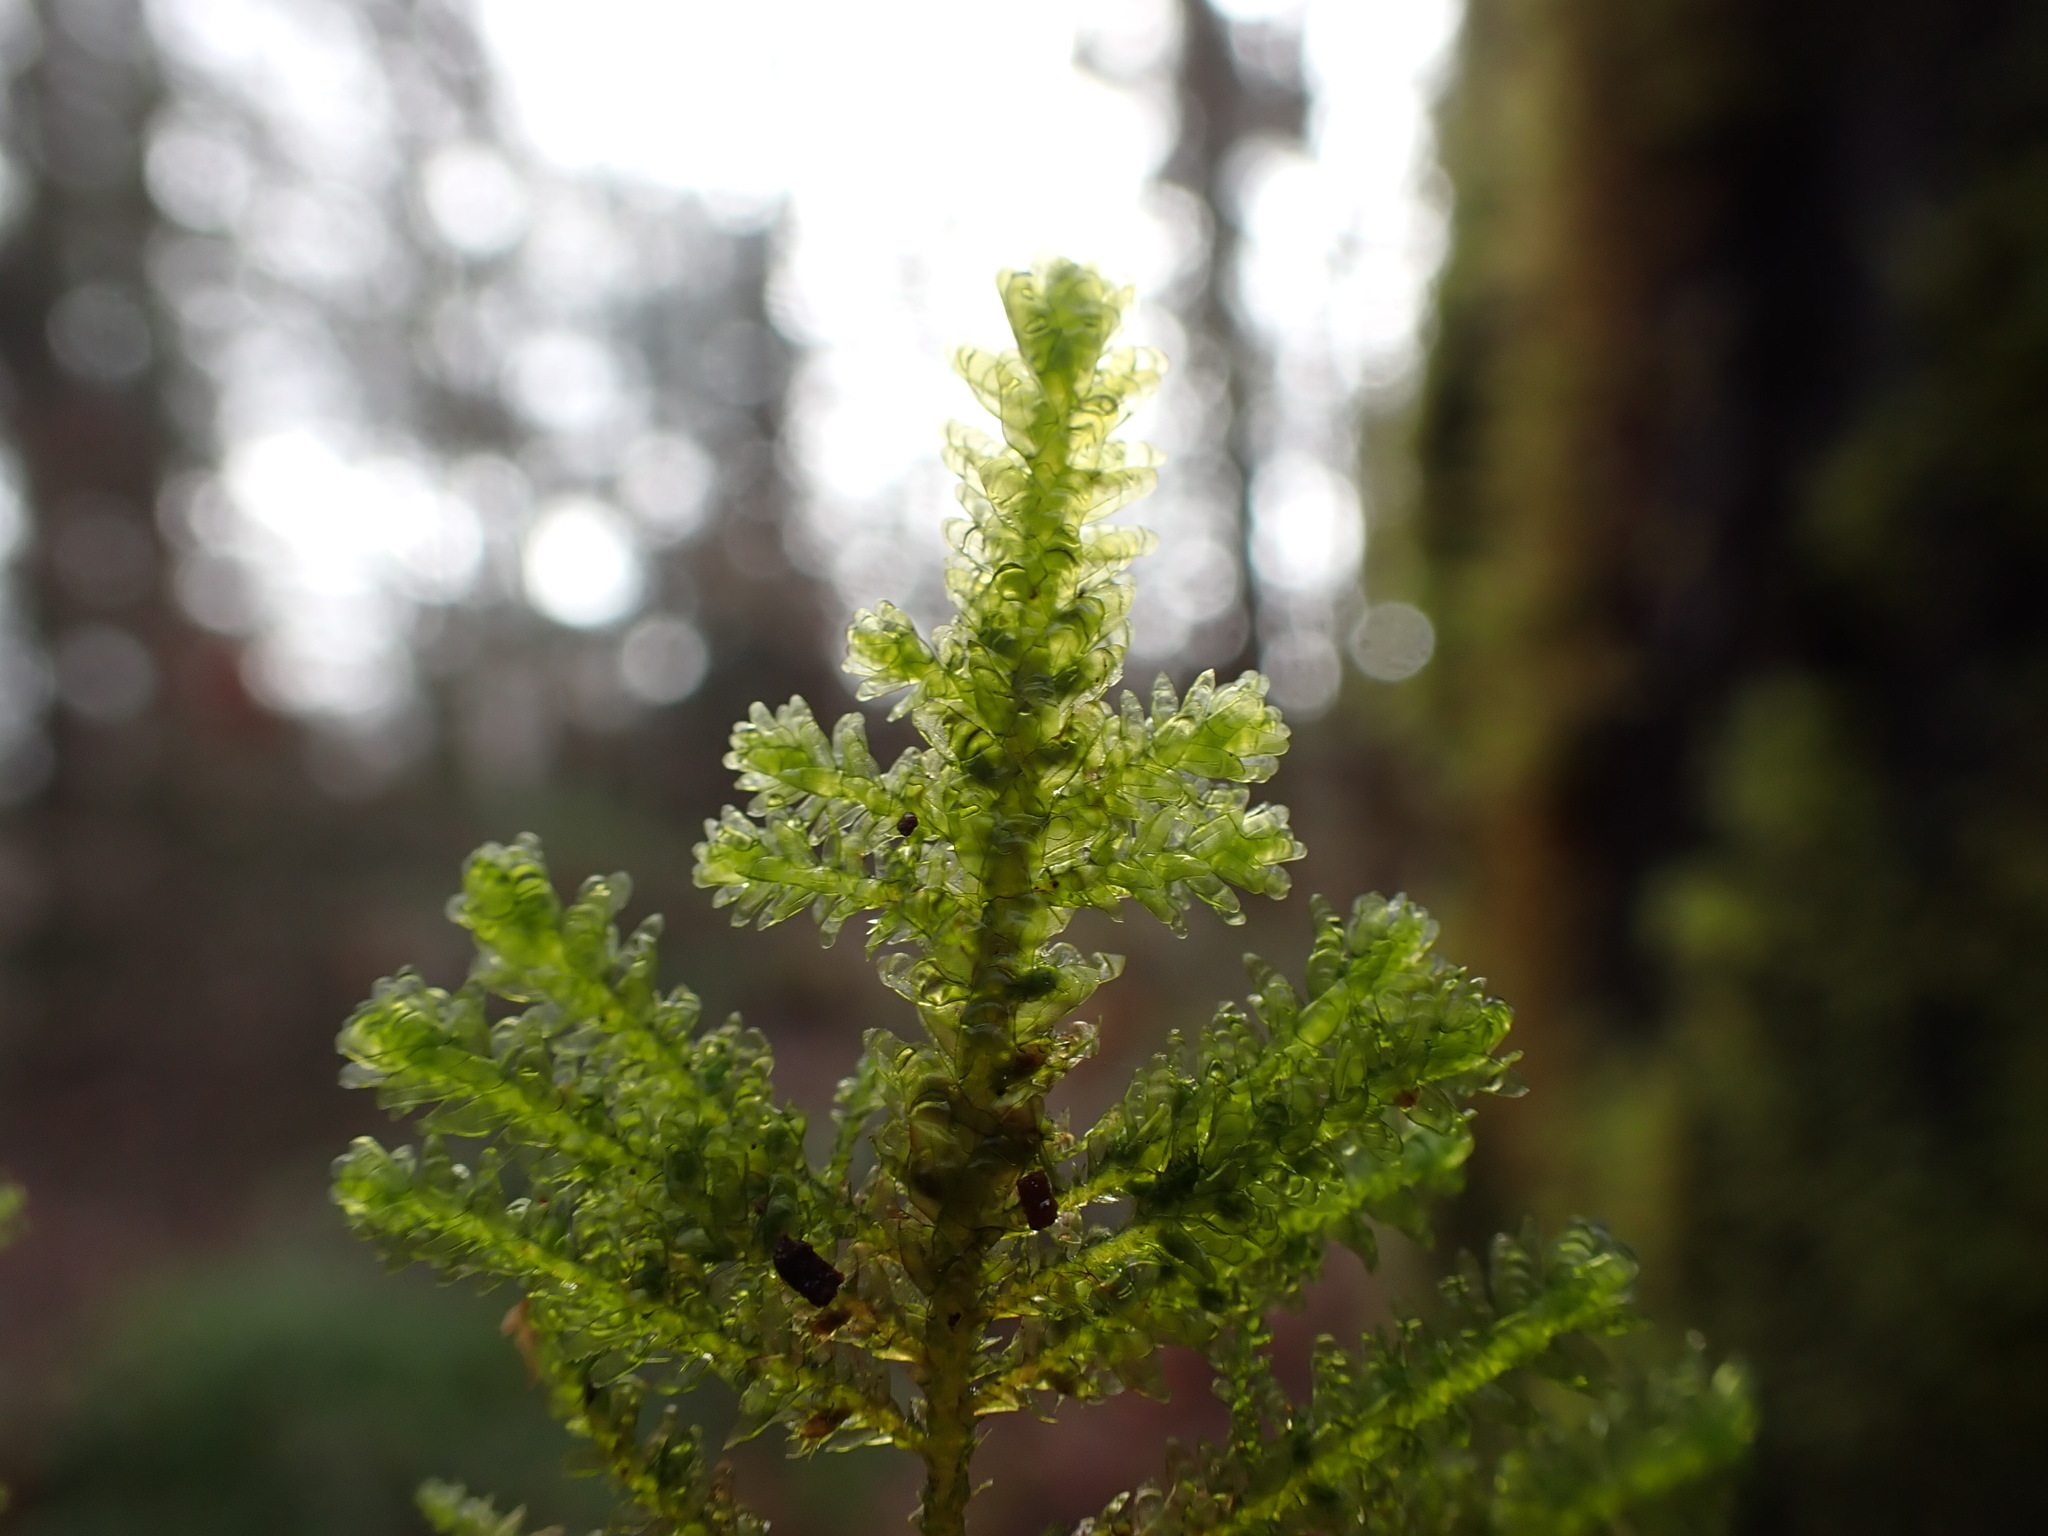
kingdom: Plantae
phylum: Bryophyta
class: Bryopsida
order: Hypnales
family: Neckeraceae
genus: Metaneckera
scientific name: Metaneckera menziesii
